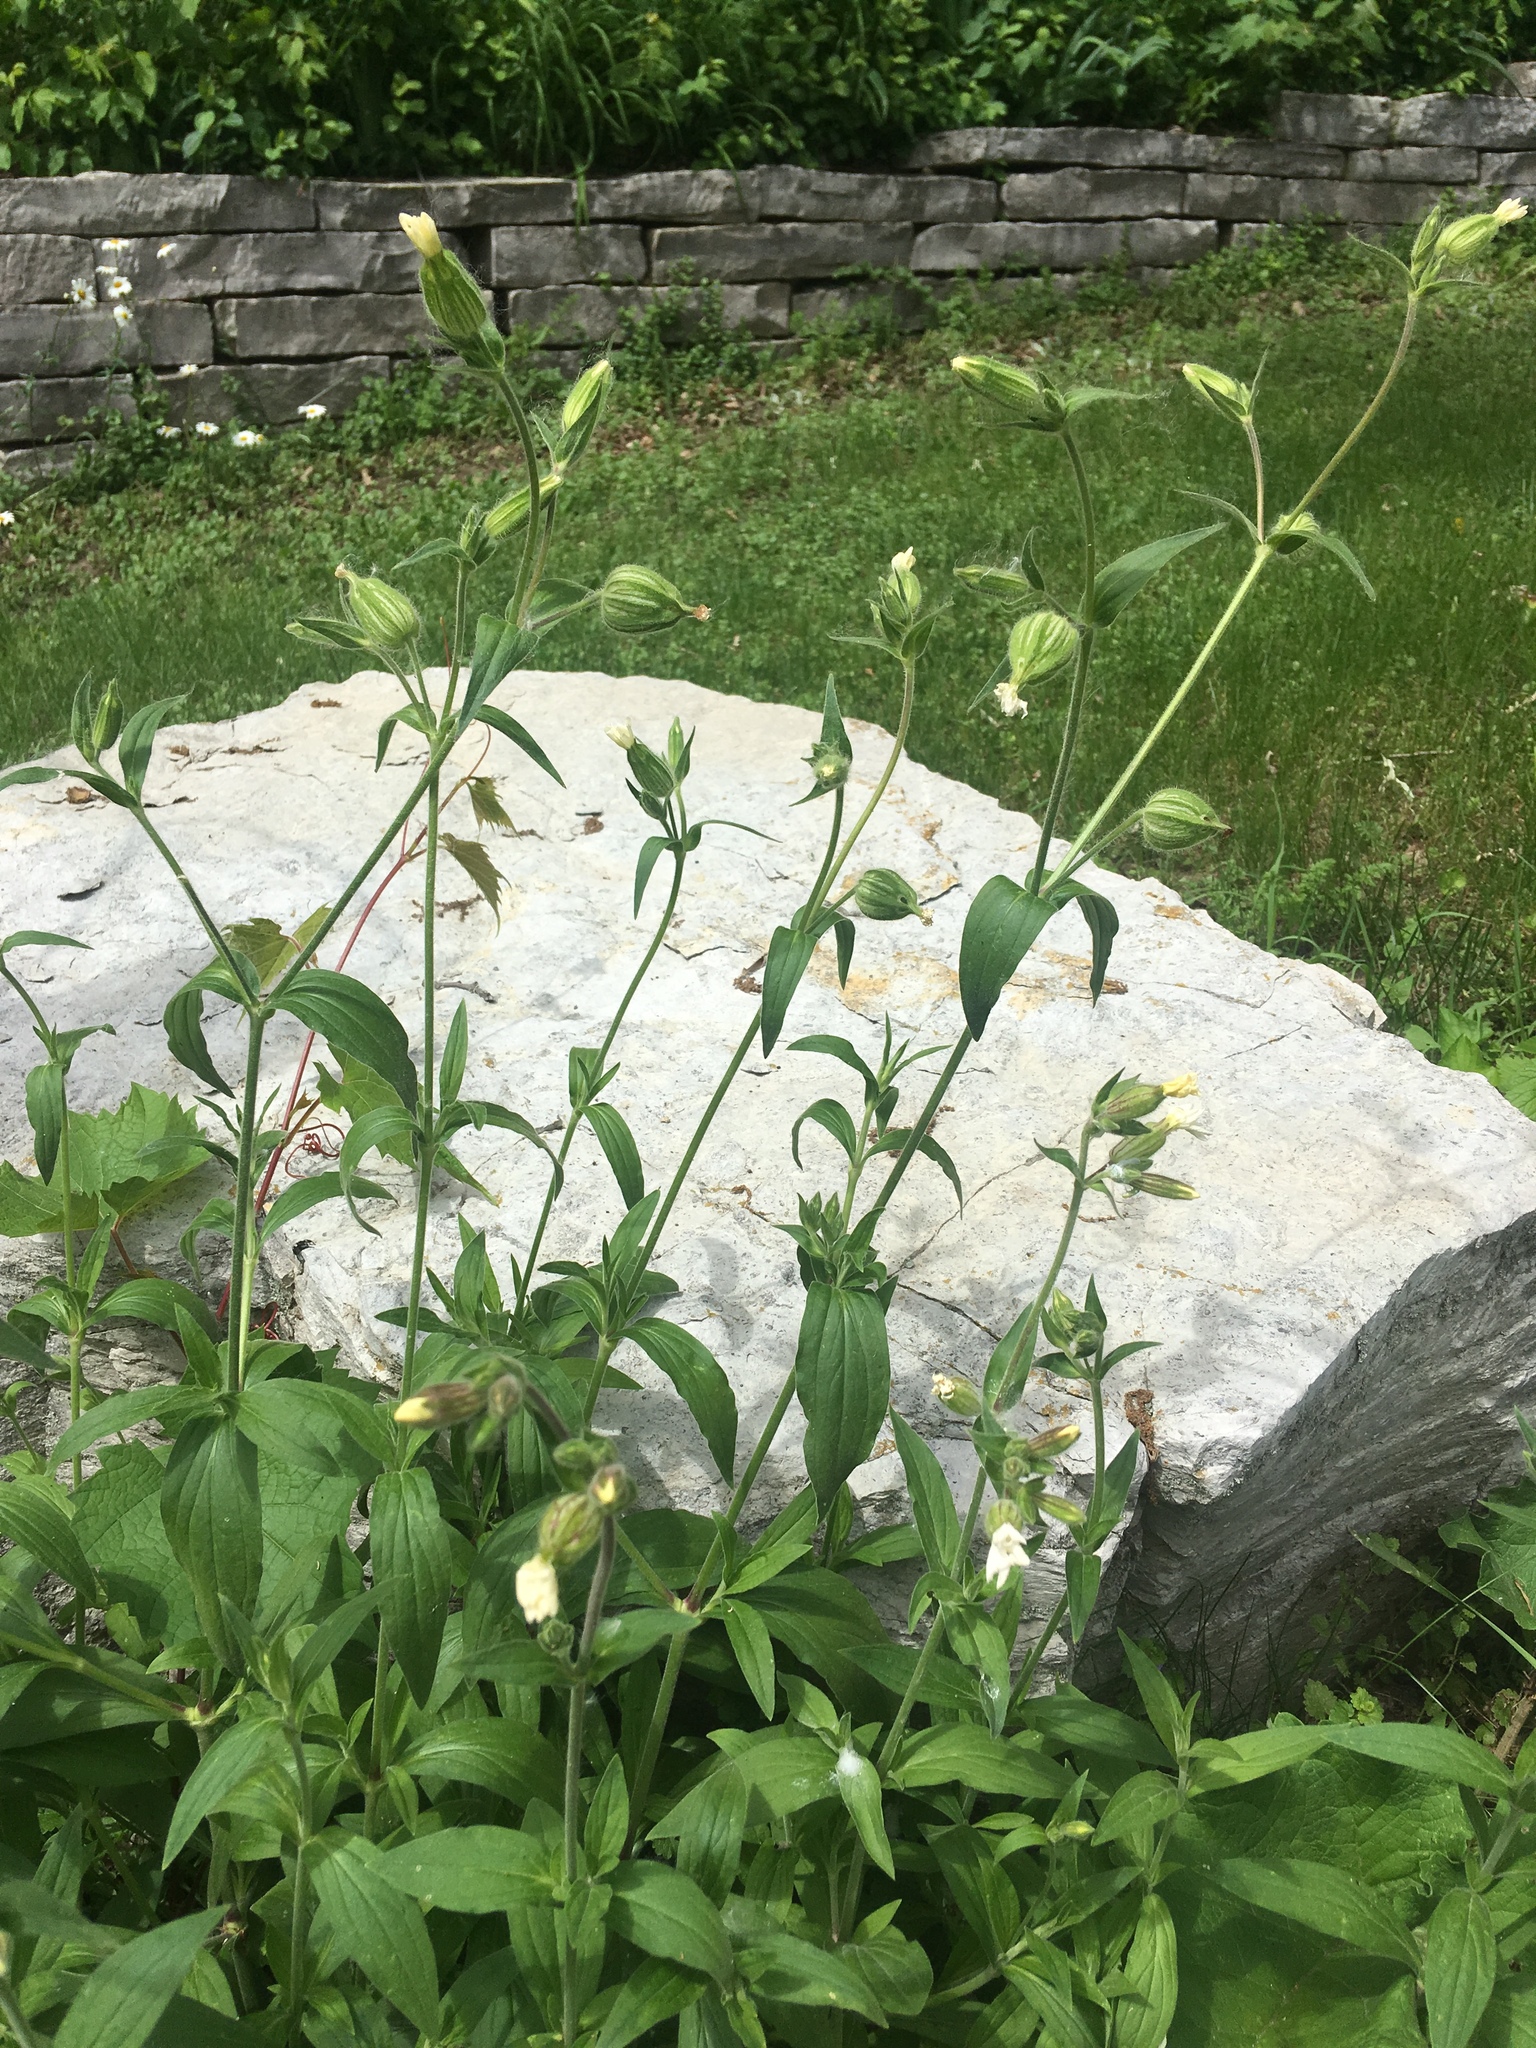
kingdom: Plantae
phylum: Tracheophyta
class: Magnoliopsida
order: Caryophyllales
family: Caryophyllaceae
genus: Silene
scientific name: Silene latifolia
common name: White campion
